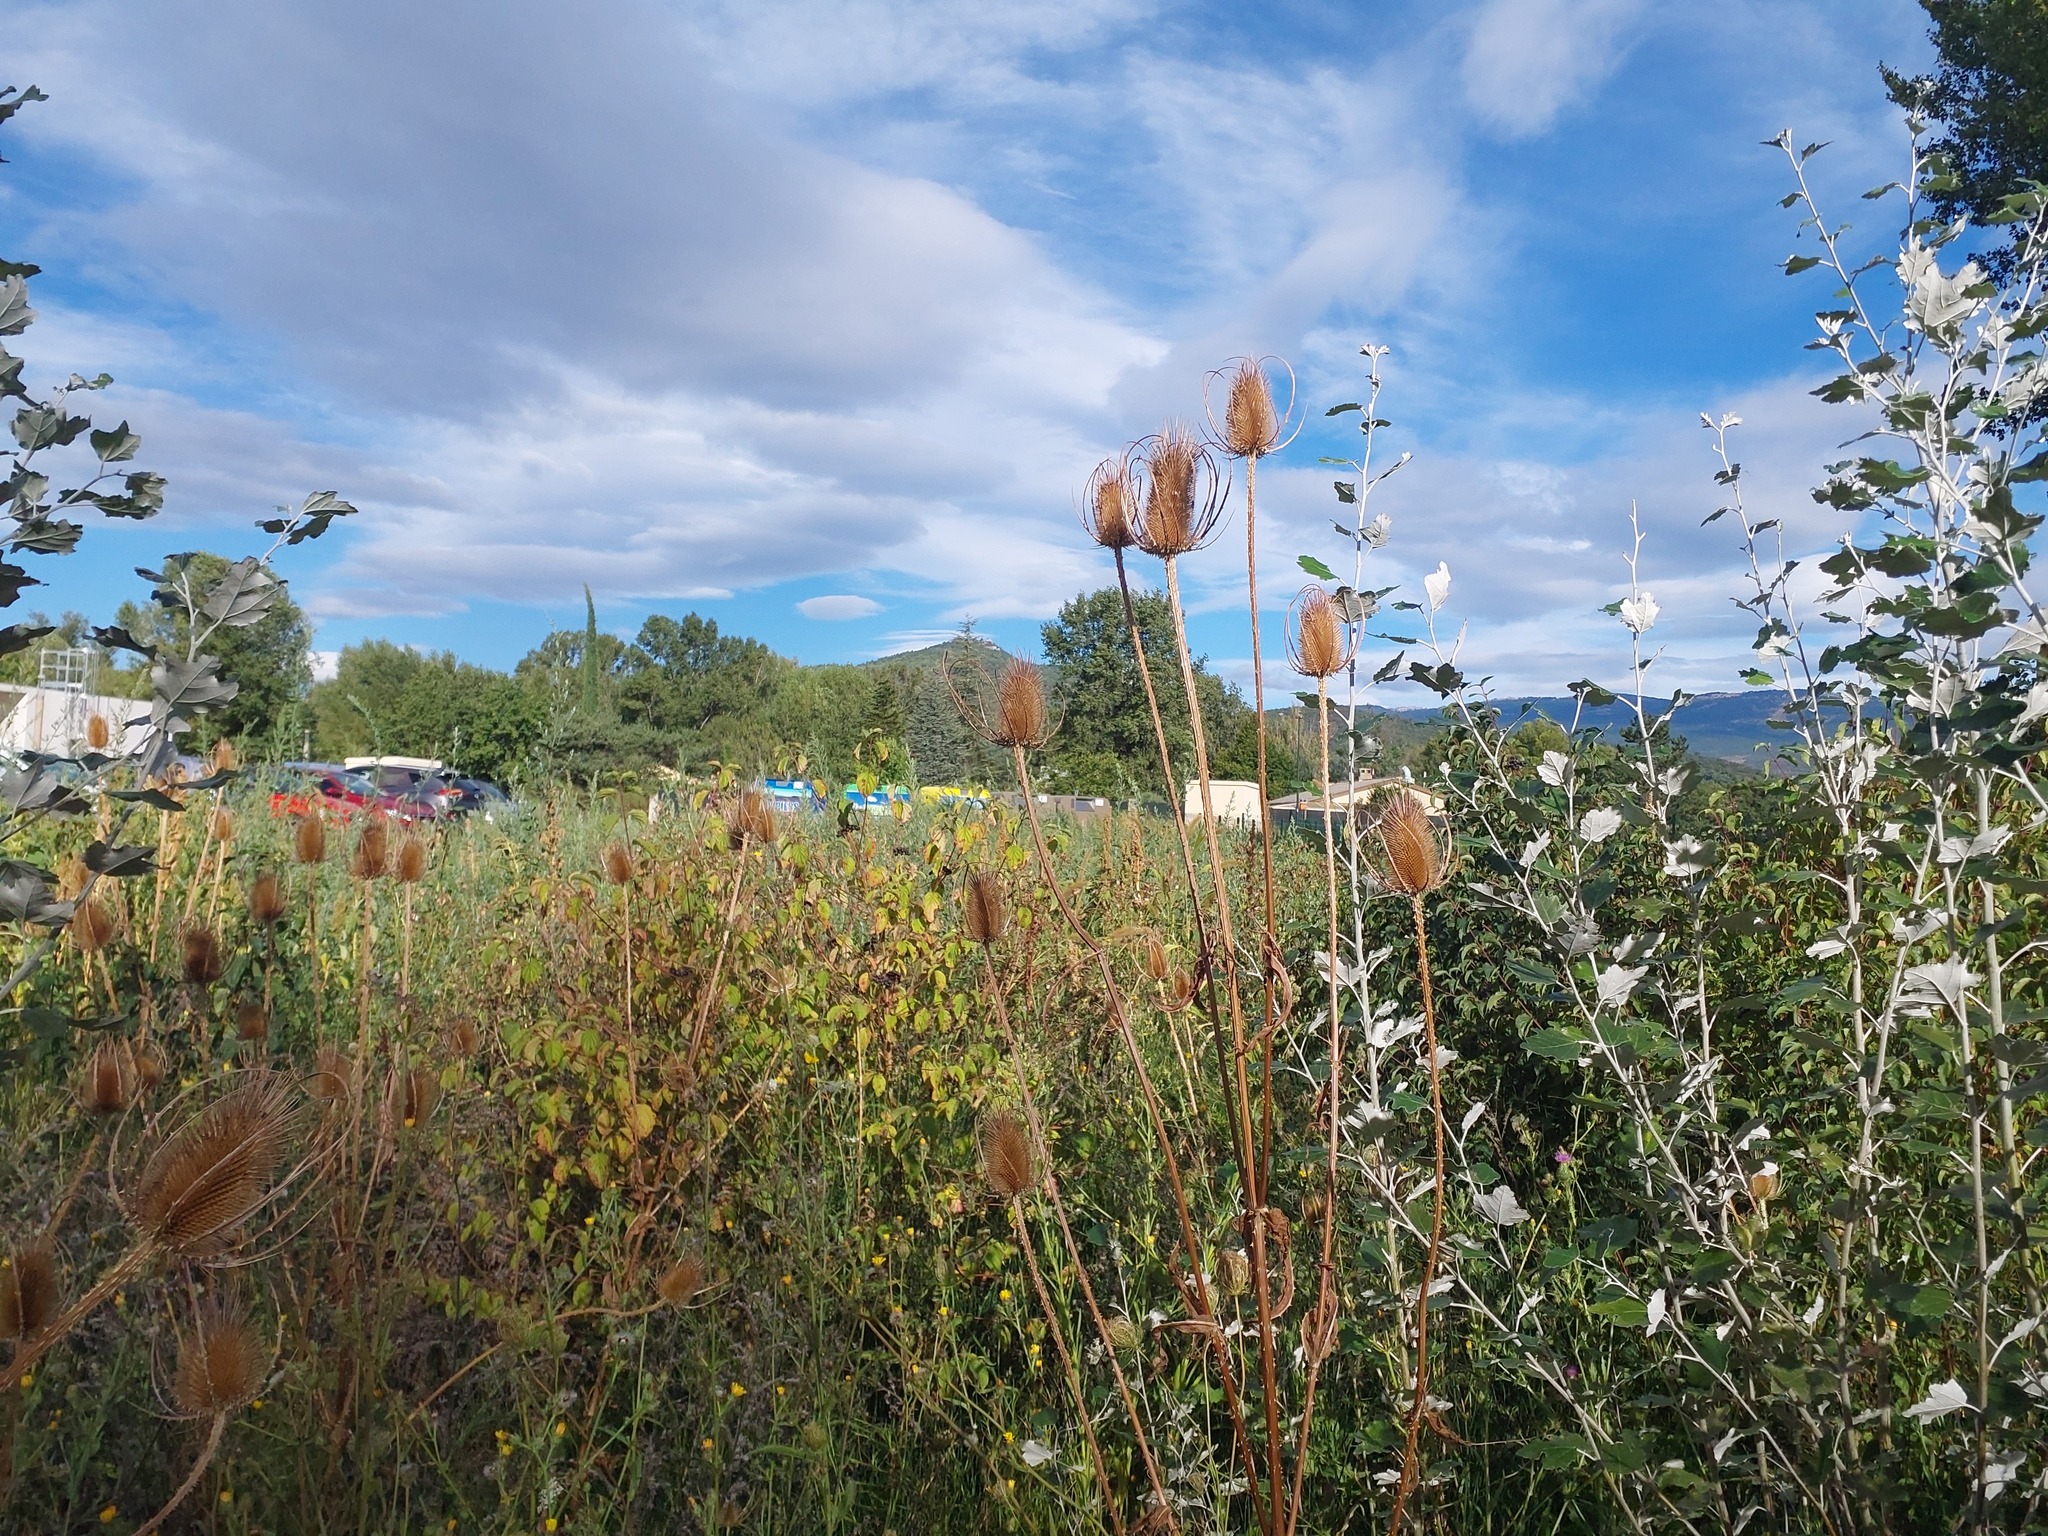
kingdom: Plantae
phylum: Tracheophyta
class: Magnoliopsida
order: Dipsacales
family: Caprifoliaceae
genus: Dipsacus
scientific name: Dipsacus fullonum
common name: Teasel
